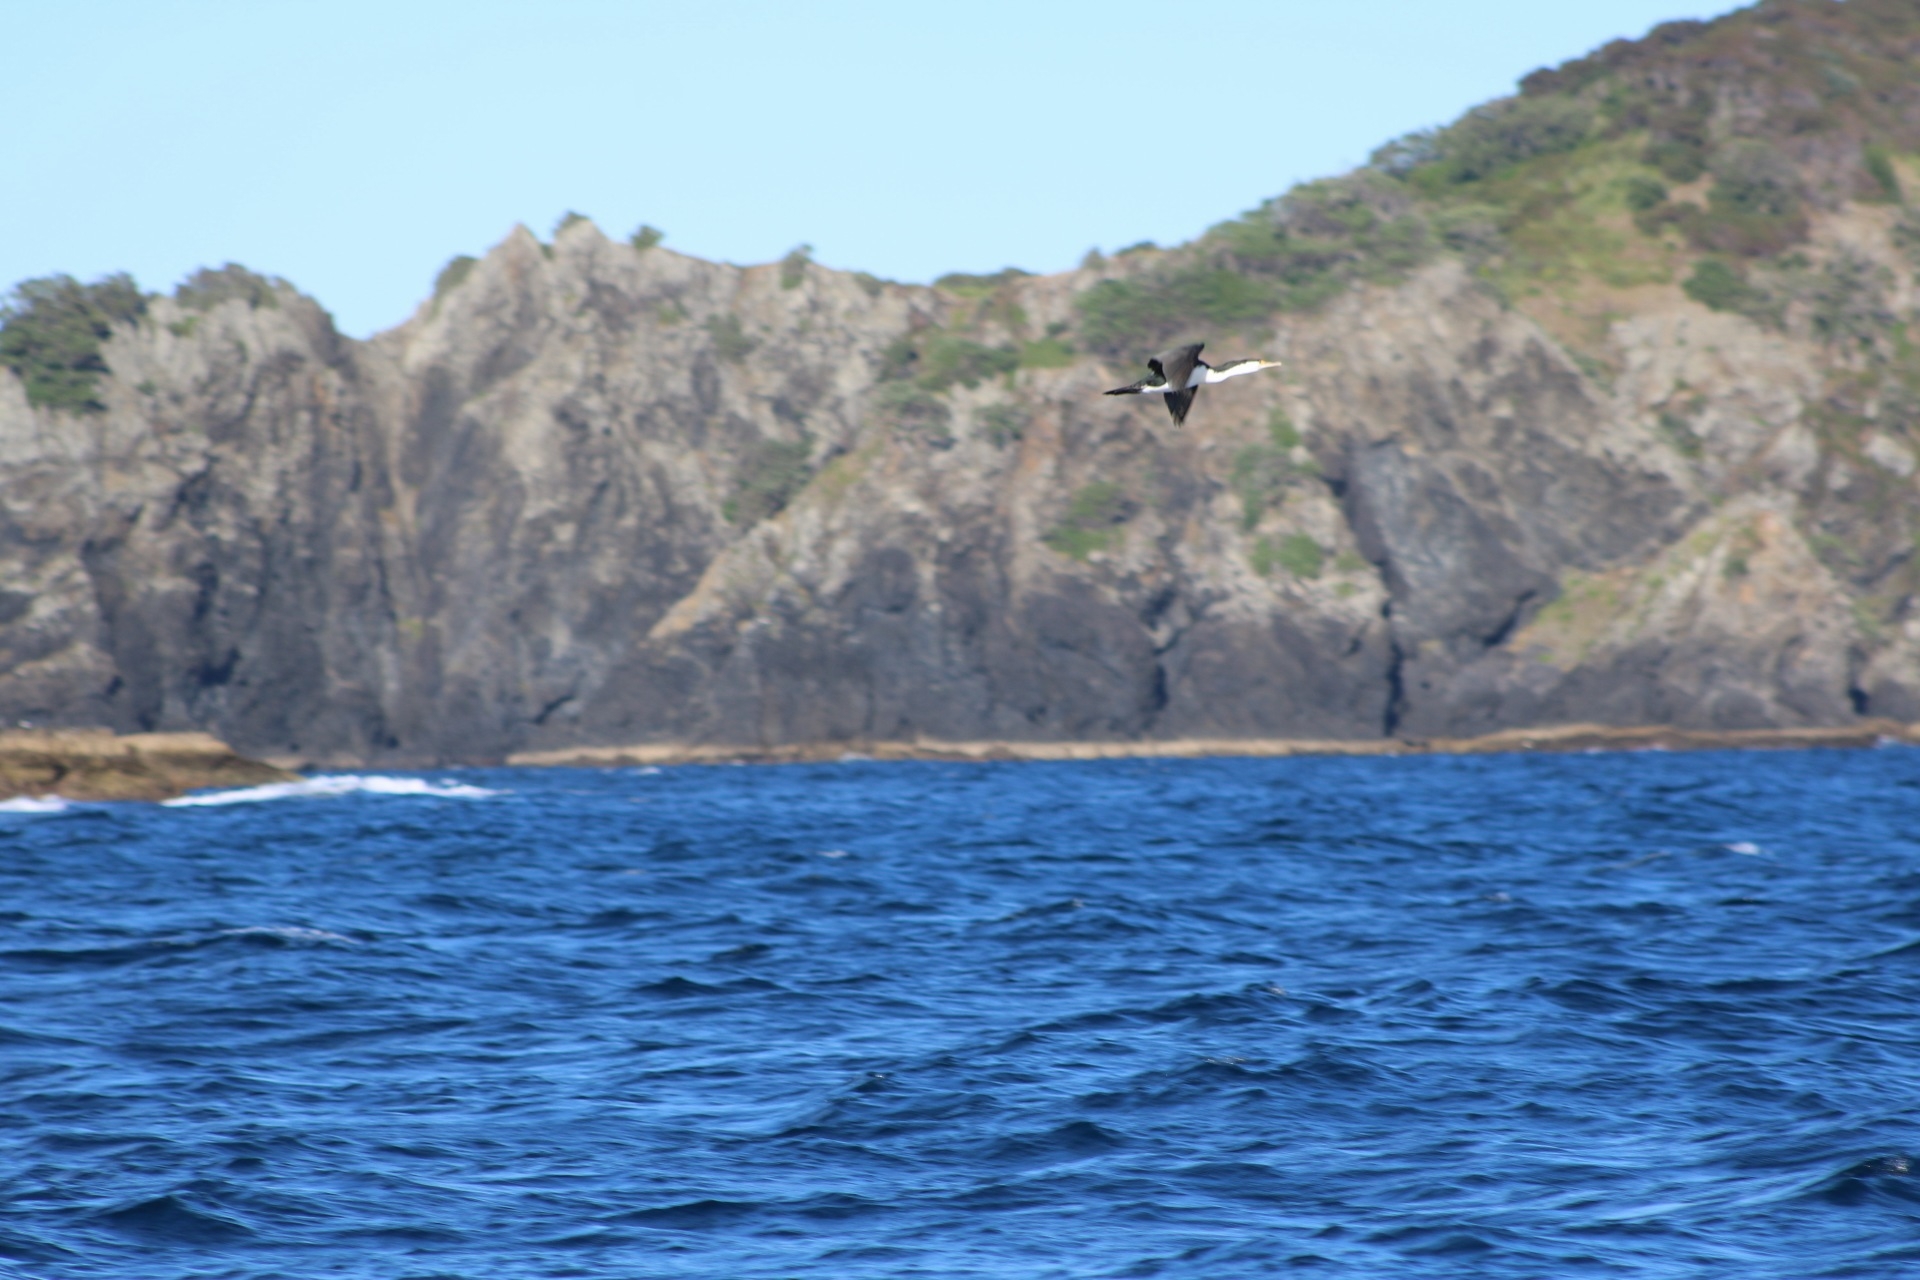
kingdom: Animalia
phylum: Chordata
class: Aves
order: Suliformes
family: Phalacrocoracidae
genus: Phalacrocorax
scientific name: Phalacrocorax varius
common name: Pied cormorant
